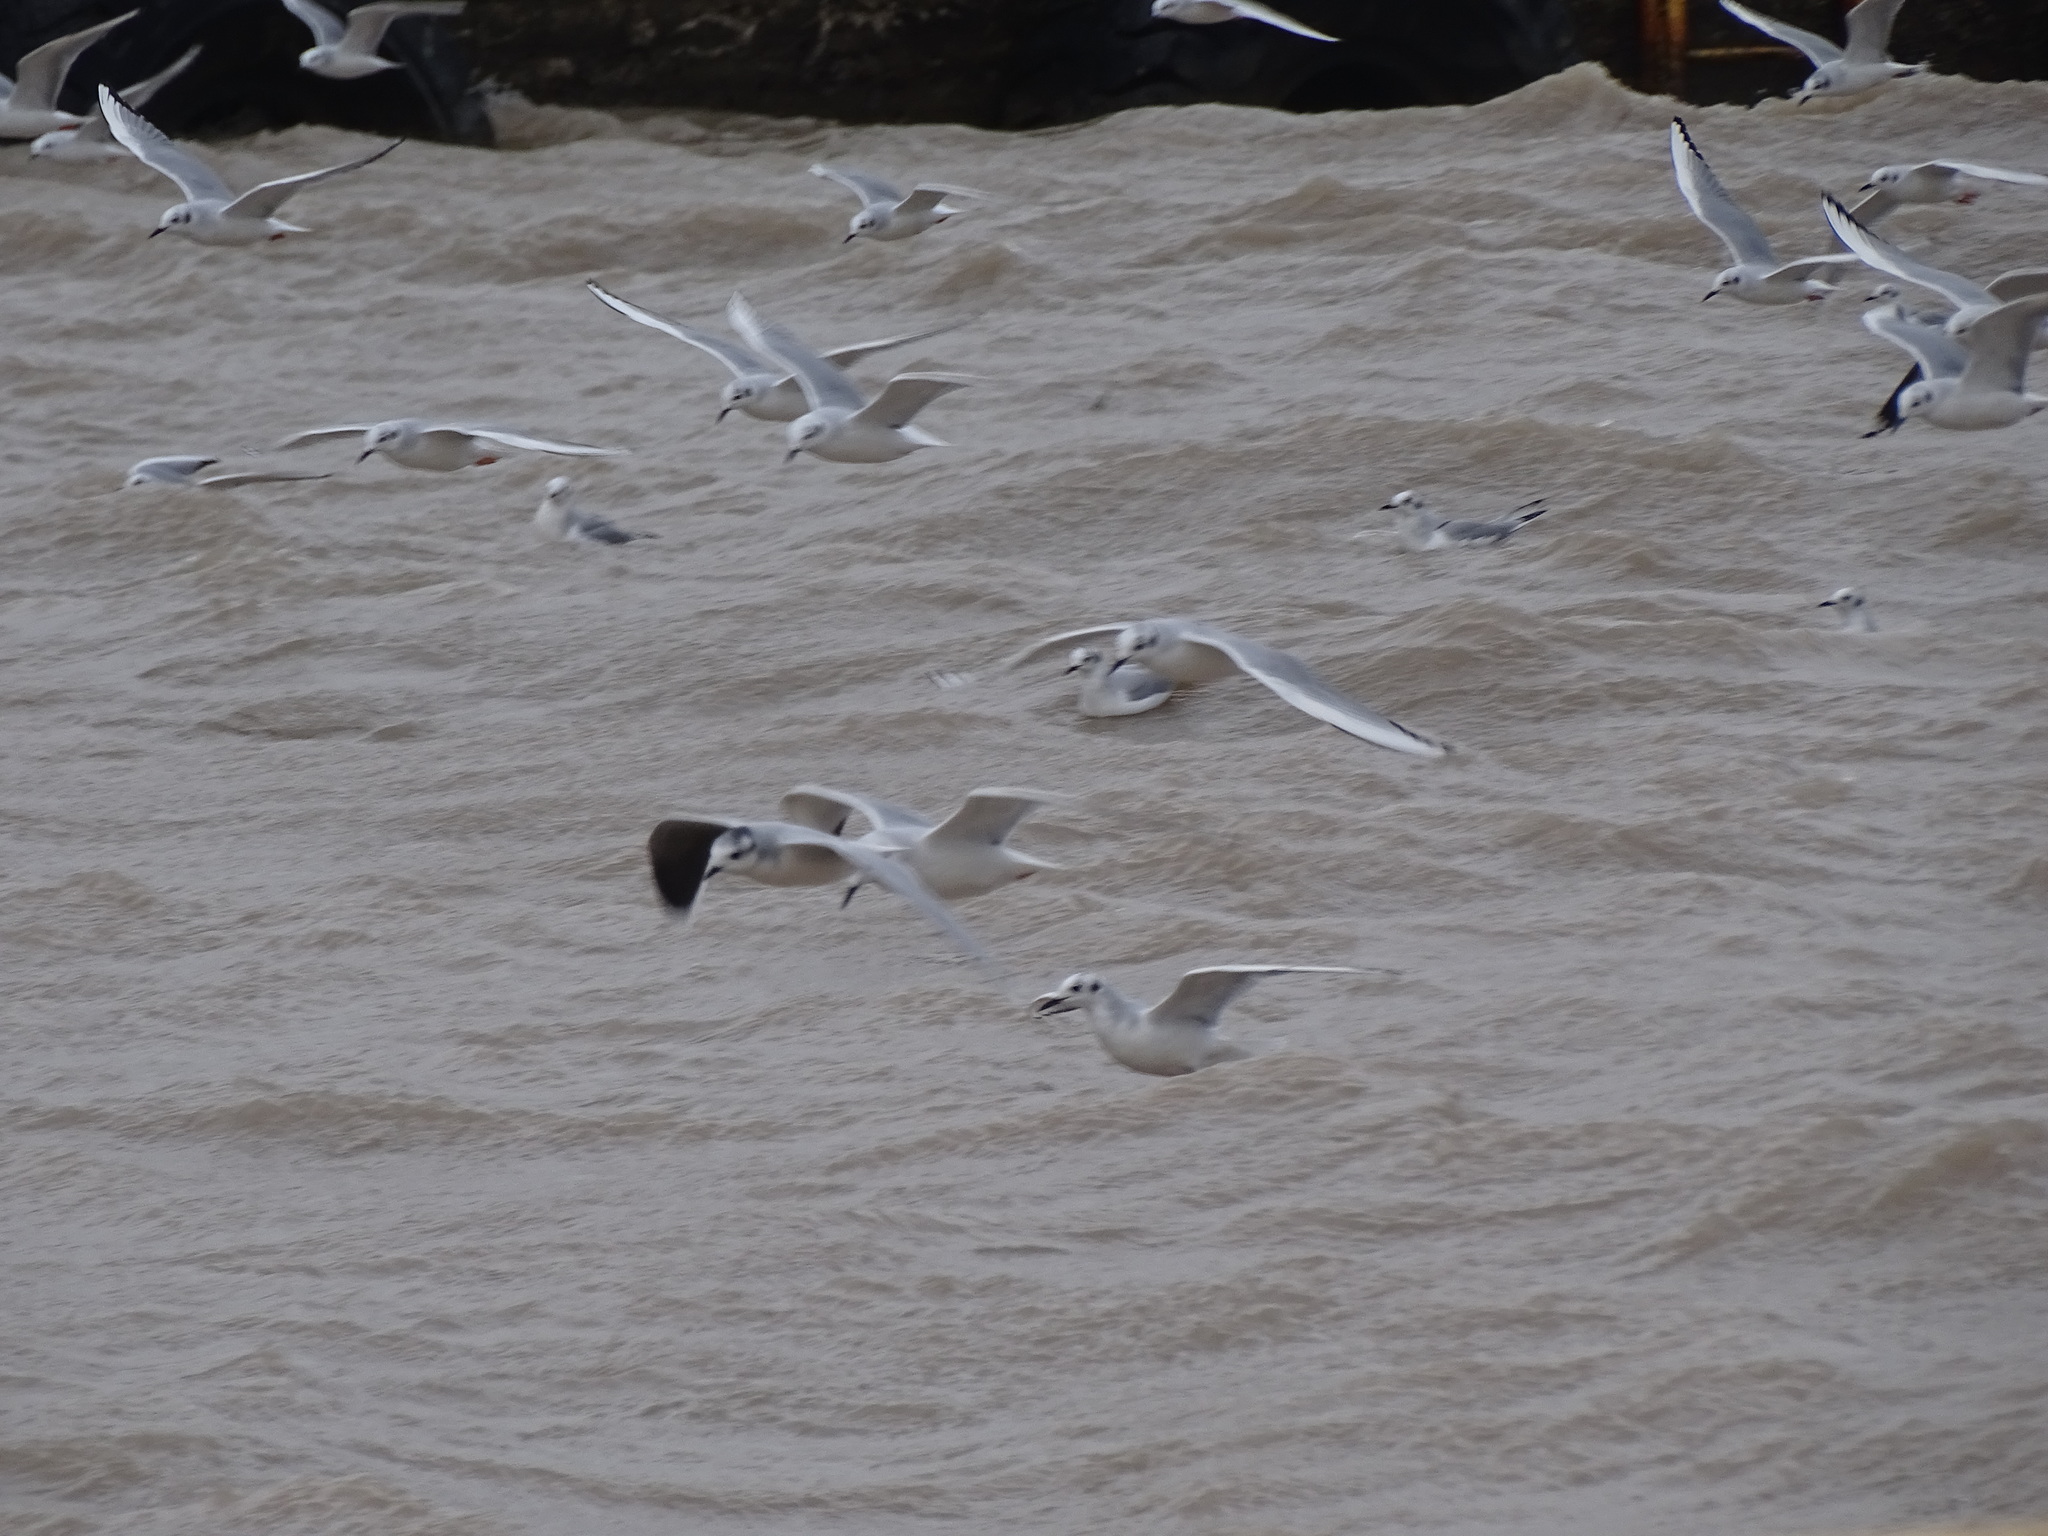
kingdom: Animalia
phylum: Chordata
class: Aves
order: Charadriiformes
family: Laridae
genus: Hydrocoloeus
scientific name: Hydrocoloeus minutus
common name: Little gull
